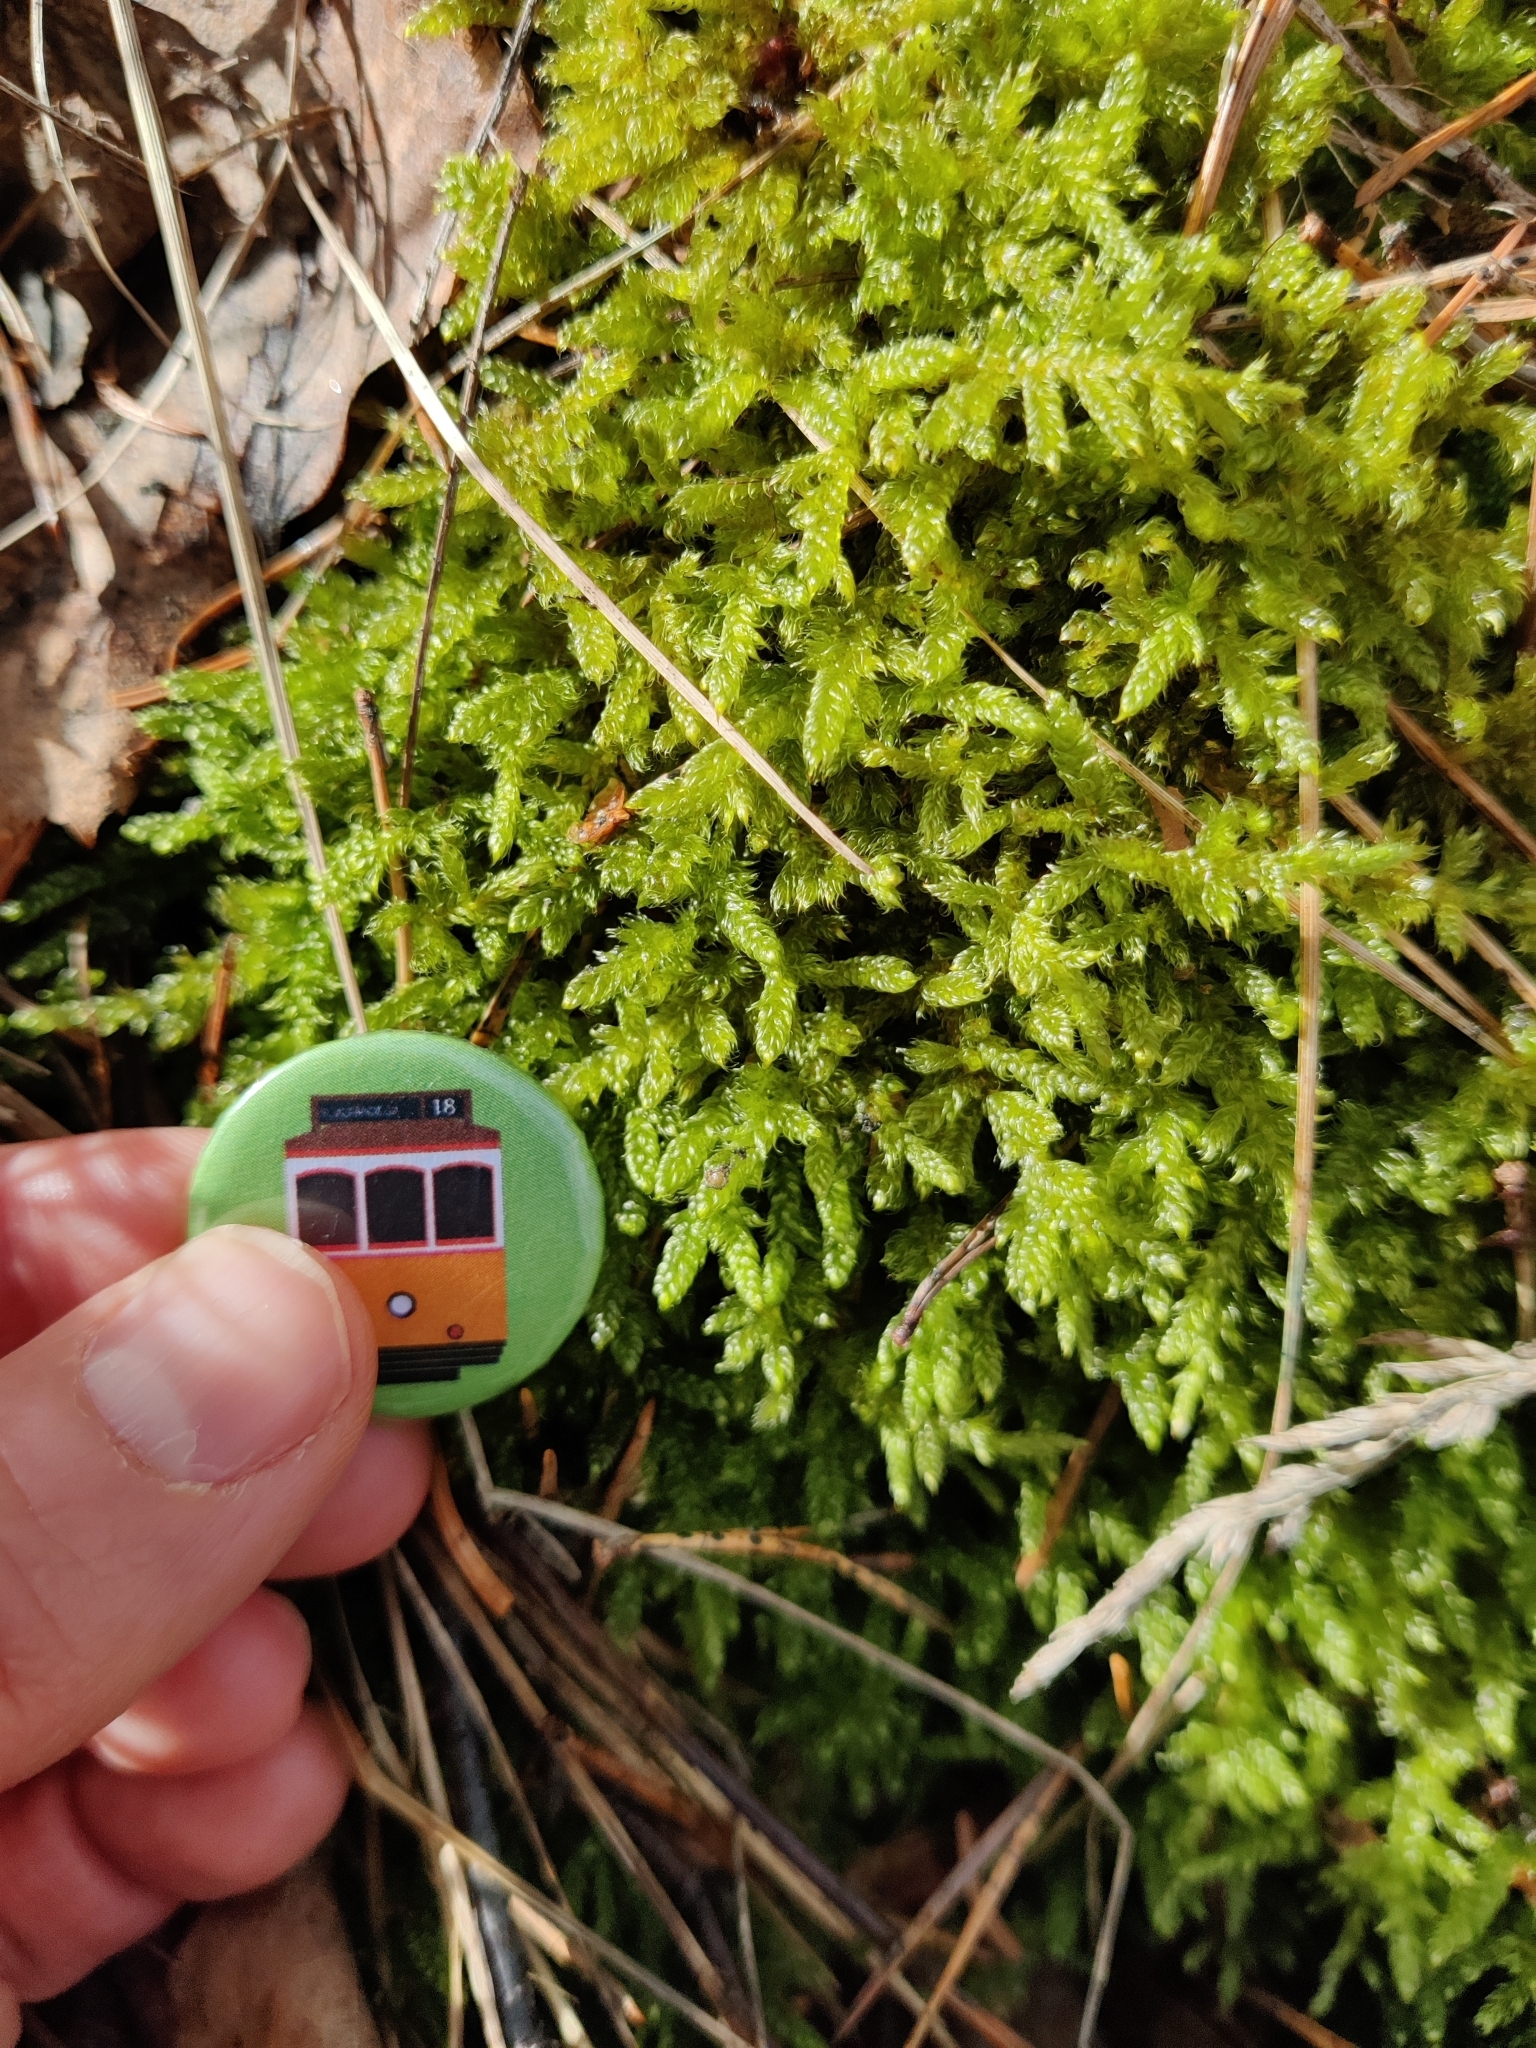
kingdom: Plantae
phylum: Bryophyta
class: Bryopsida
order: Hypnales
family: Hypnaceae
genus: Hypnum
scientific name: Hypnum cupressiforme
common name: Cypress-leaved plait-moss
